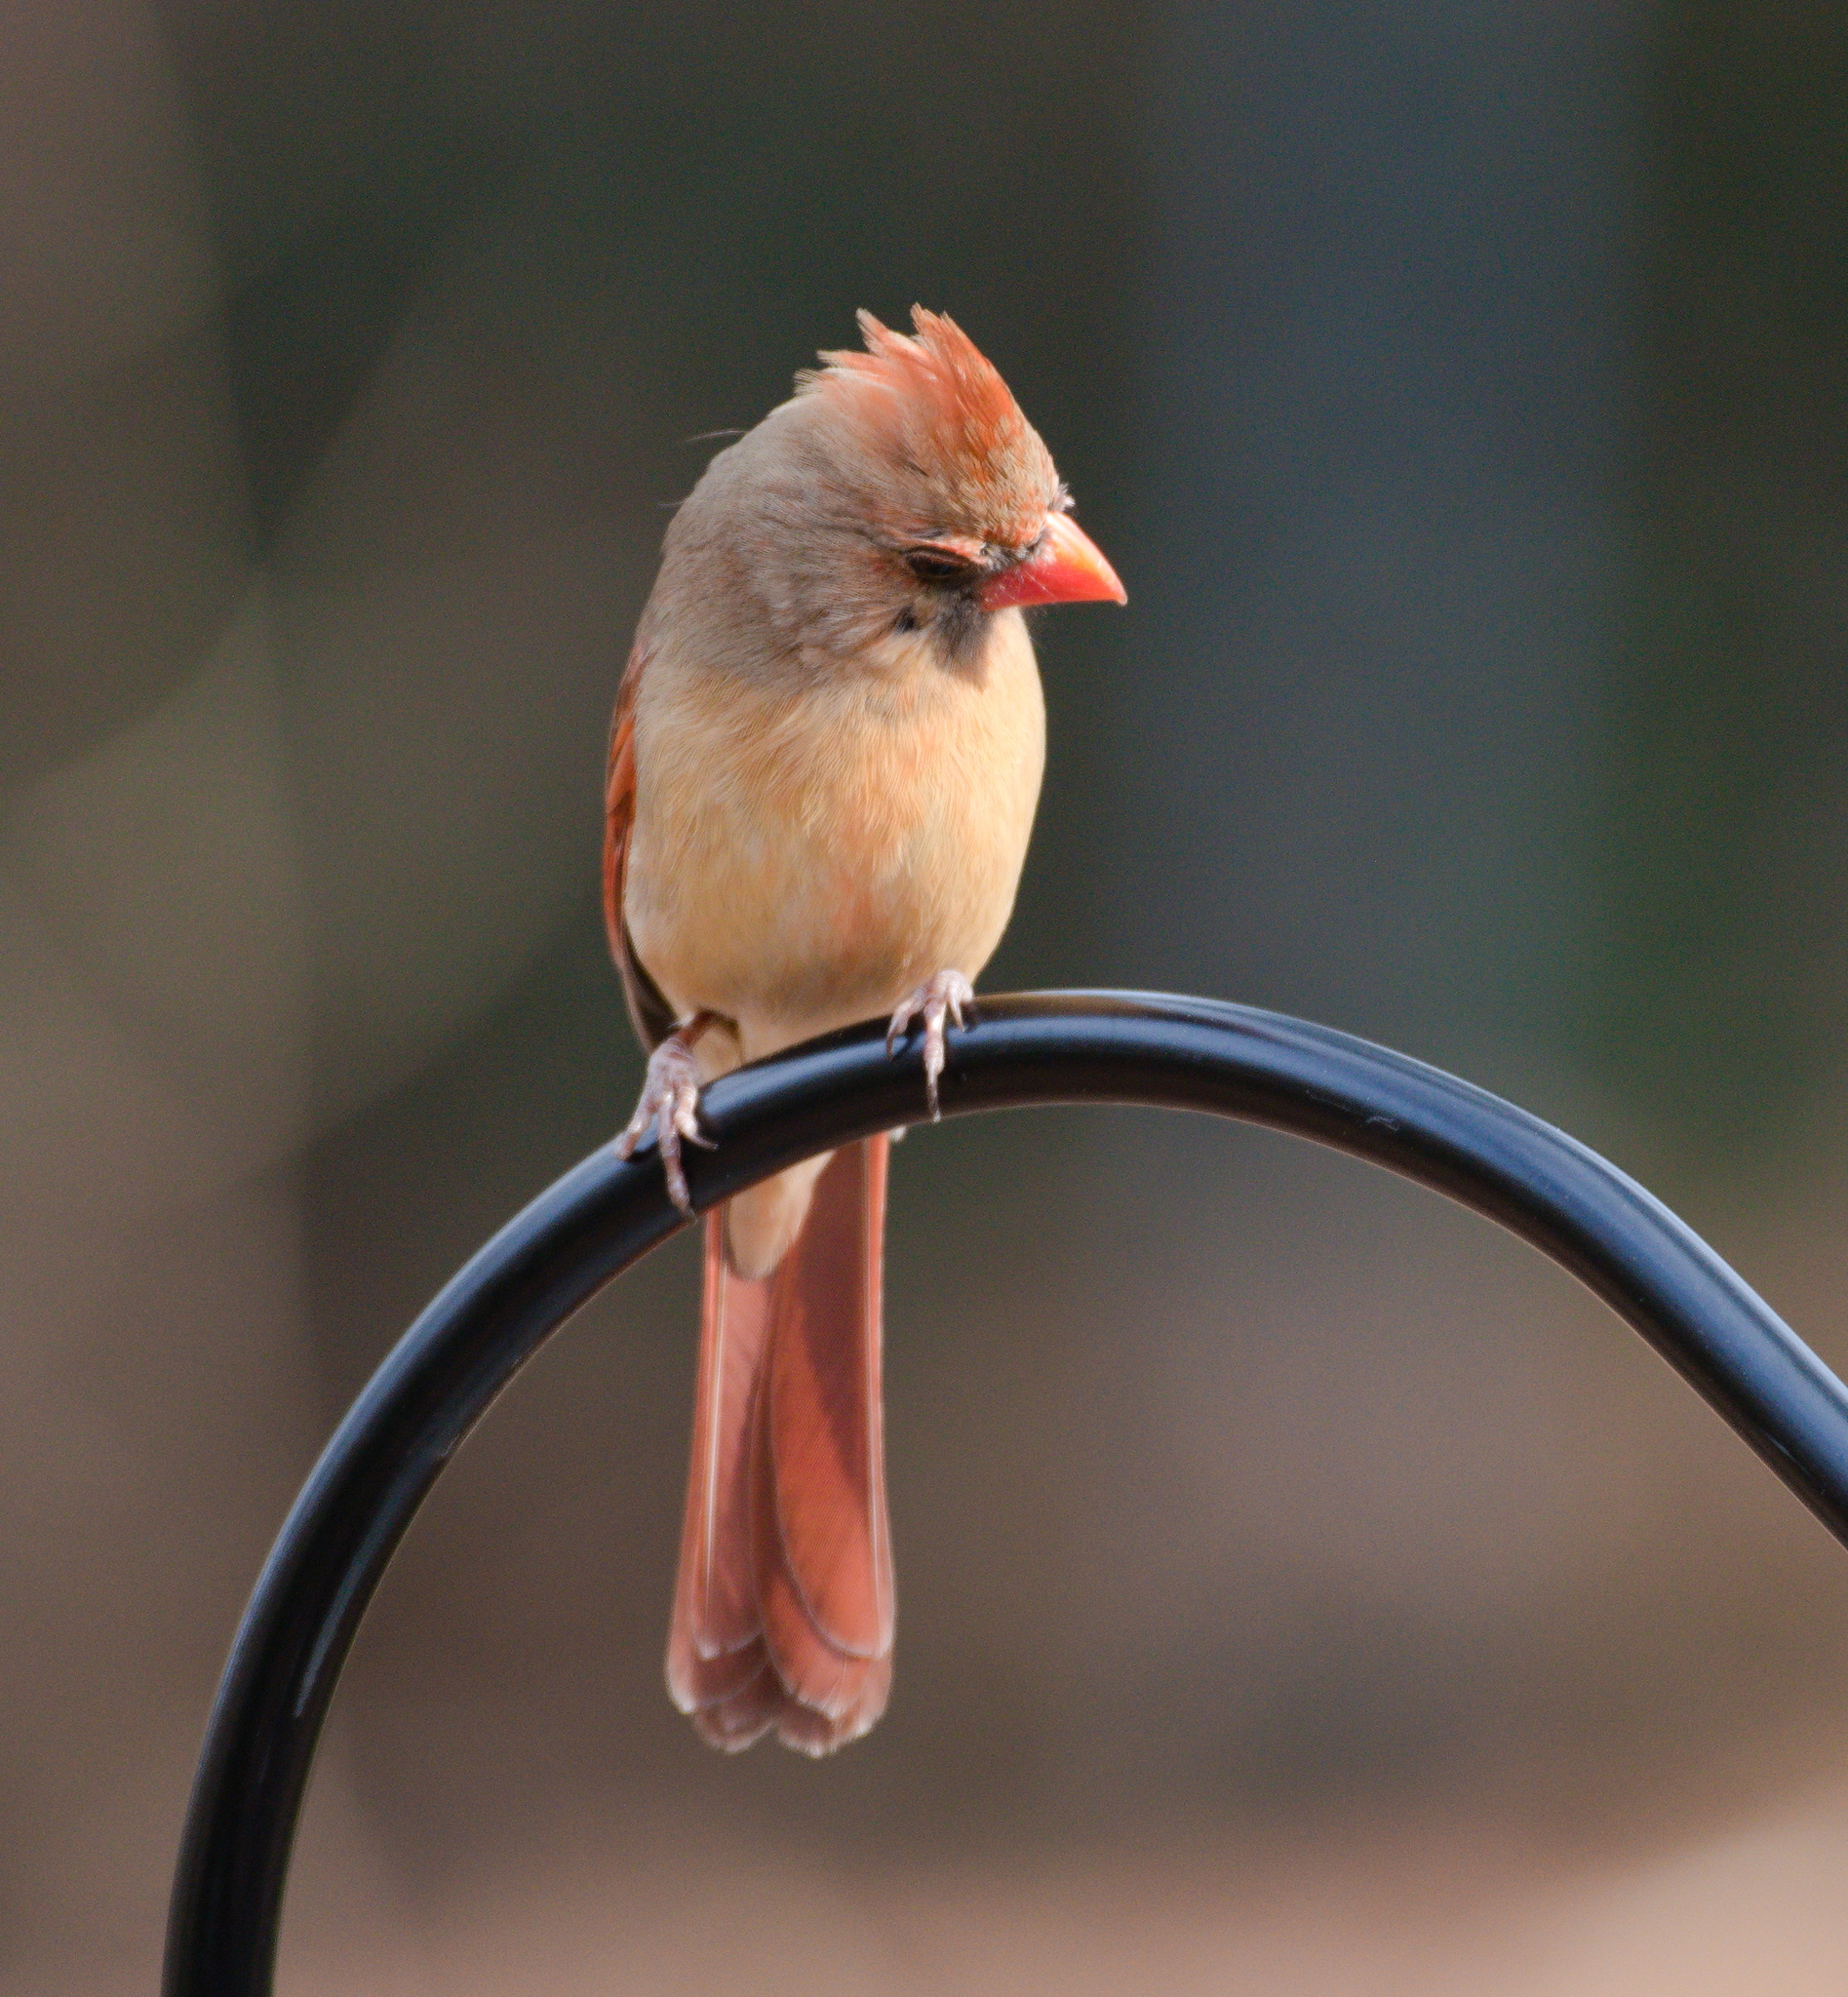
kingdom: Animalia
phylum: Chordata
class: Aves
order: Passeriformes
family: Cardinalidae
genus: Cardinalis
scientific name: Cardinalis cardinalis
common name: Northern cardinal
